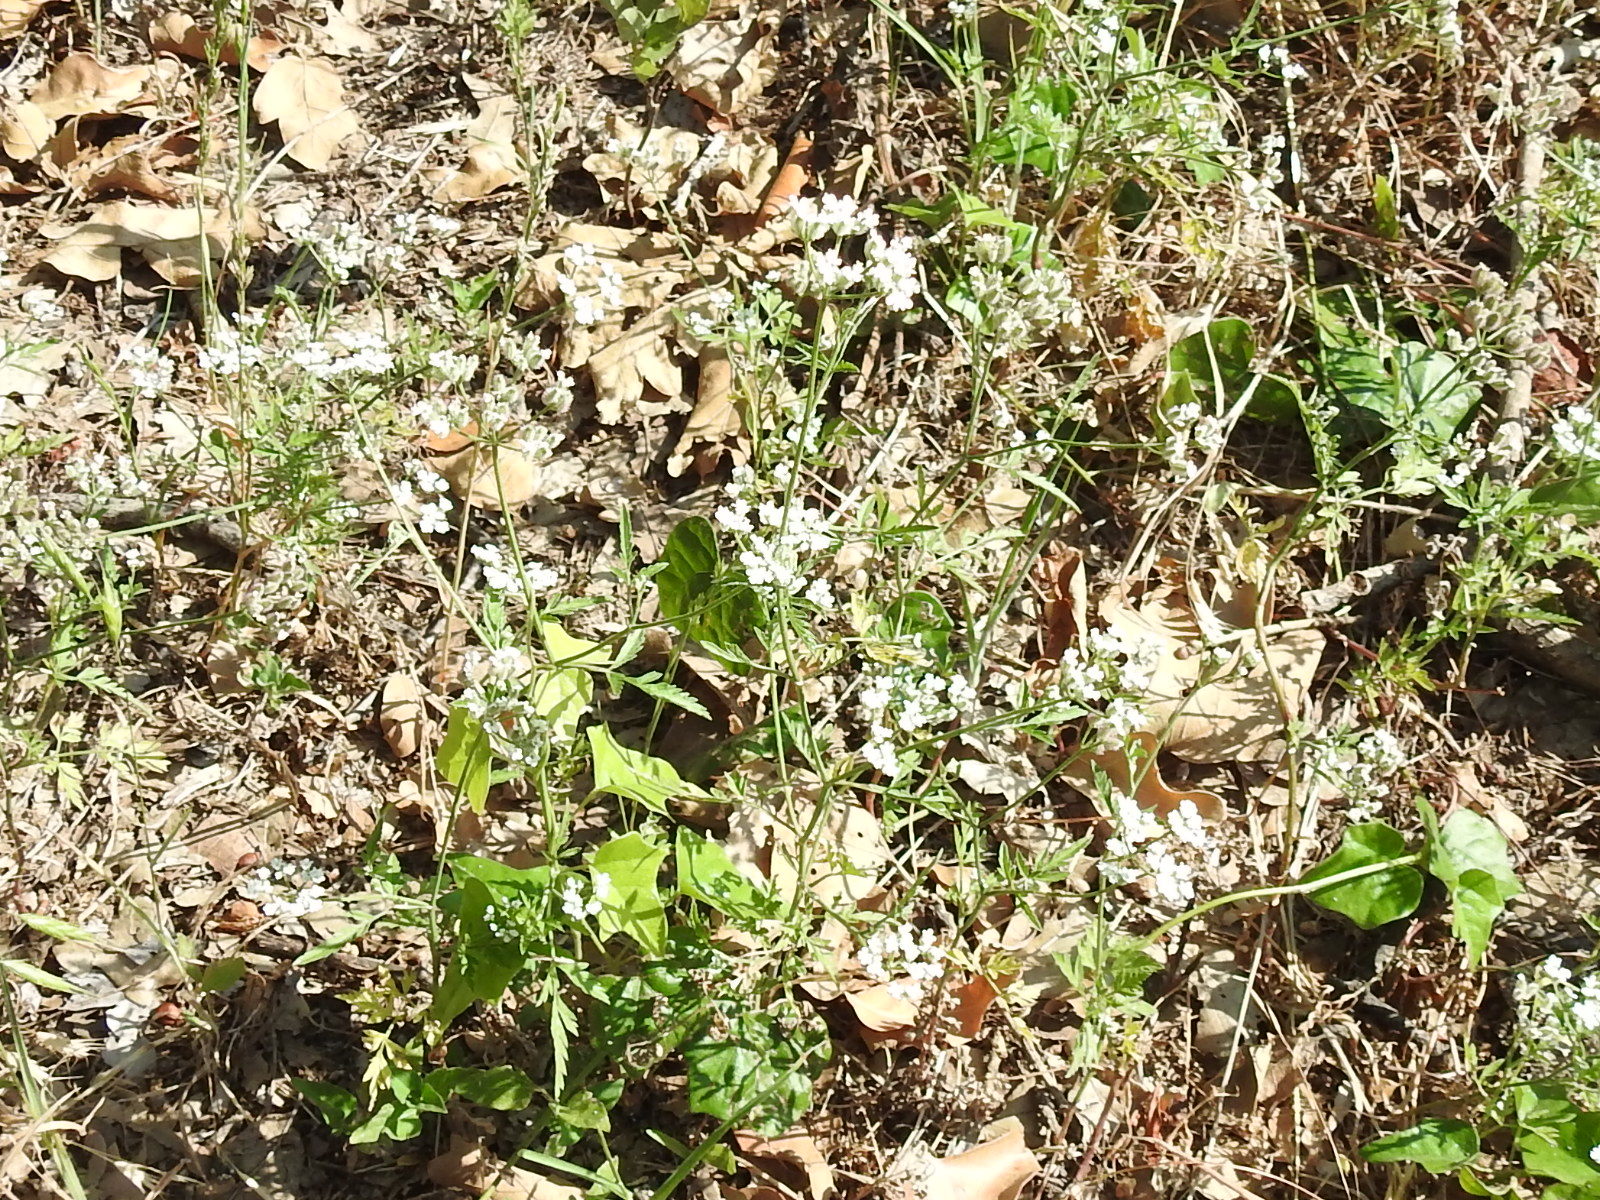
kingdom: Plantae
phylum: Tracheophyta
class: Magnoliopsida
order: Apiales
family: Apiaceae
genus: Torilis
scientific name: Torilis arvensis
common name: Spreading hedge-parsley
